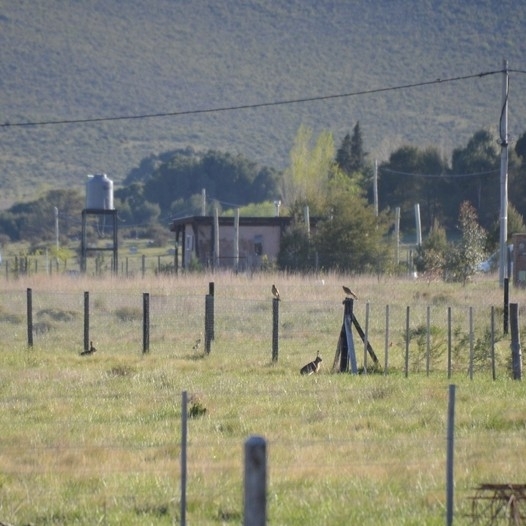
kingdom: Animalia
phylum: Chordata
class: Mammalia
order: Lagomorpha
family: Leporidae
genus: Lepus
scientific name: Lepus europaeus
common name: European hare
